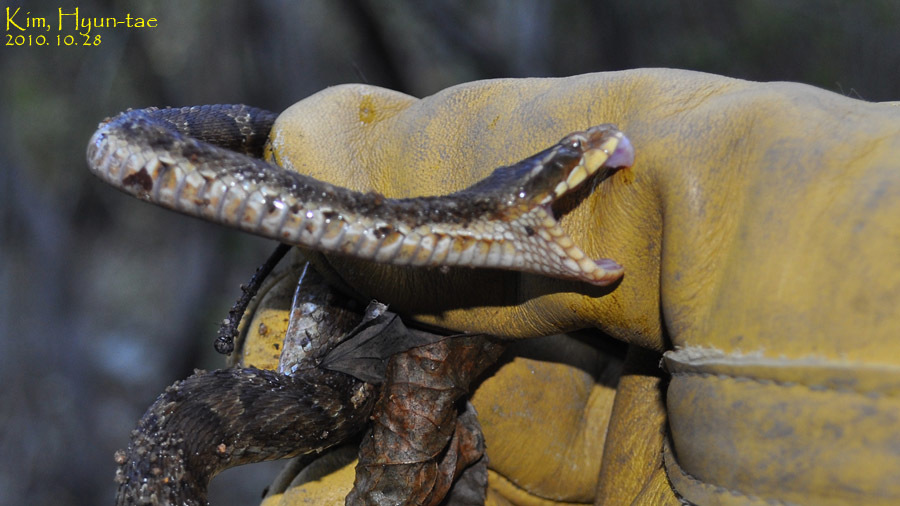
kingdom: Animalia
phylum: Chordata
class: Squamata
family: Viperidae
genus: Gloydius
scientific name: Gloydius ussuriensis
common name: Ussuri mamushi
